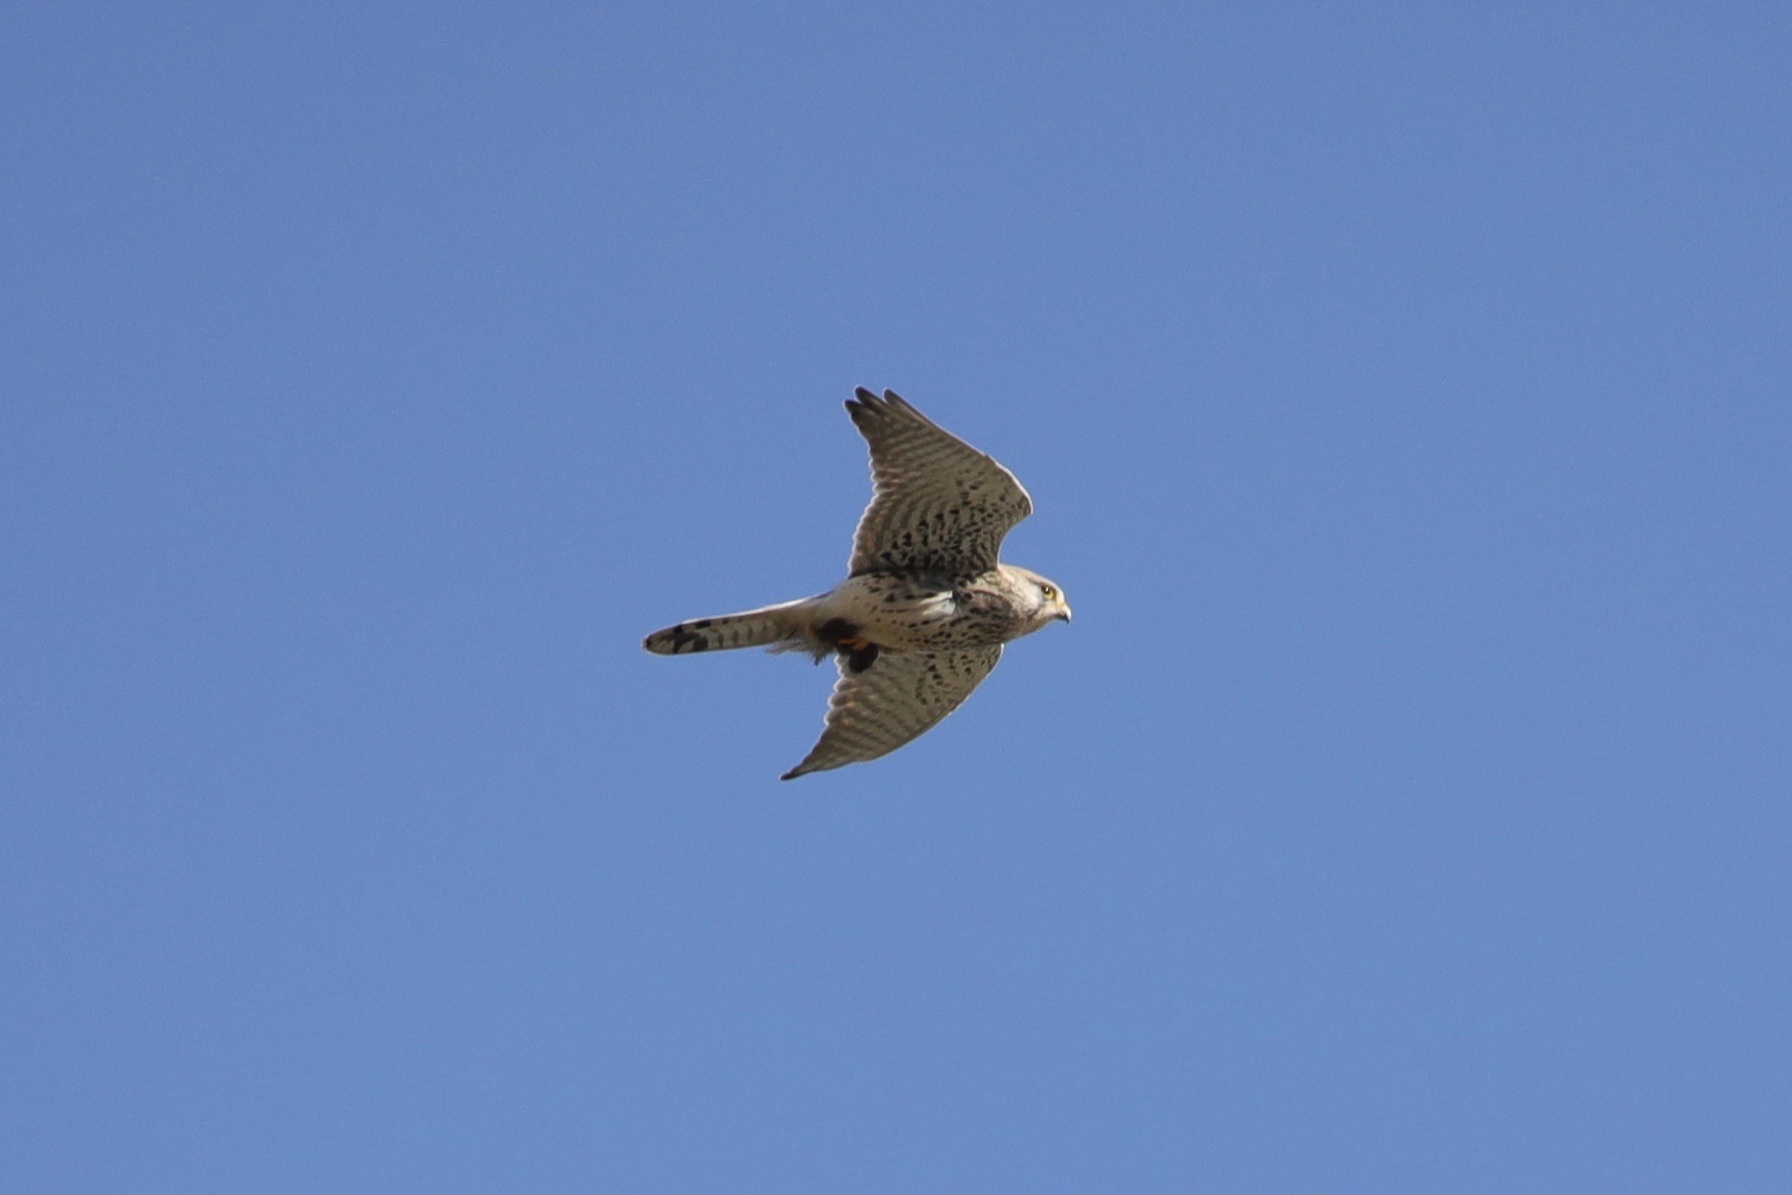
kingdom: Animalia
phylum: Chordata
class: Aves
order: Falconiformes
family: Falconidae
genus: Falco
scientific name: Falco tinnunculus
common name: Common kestrel
